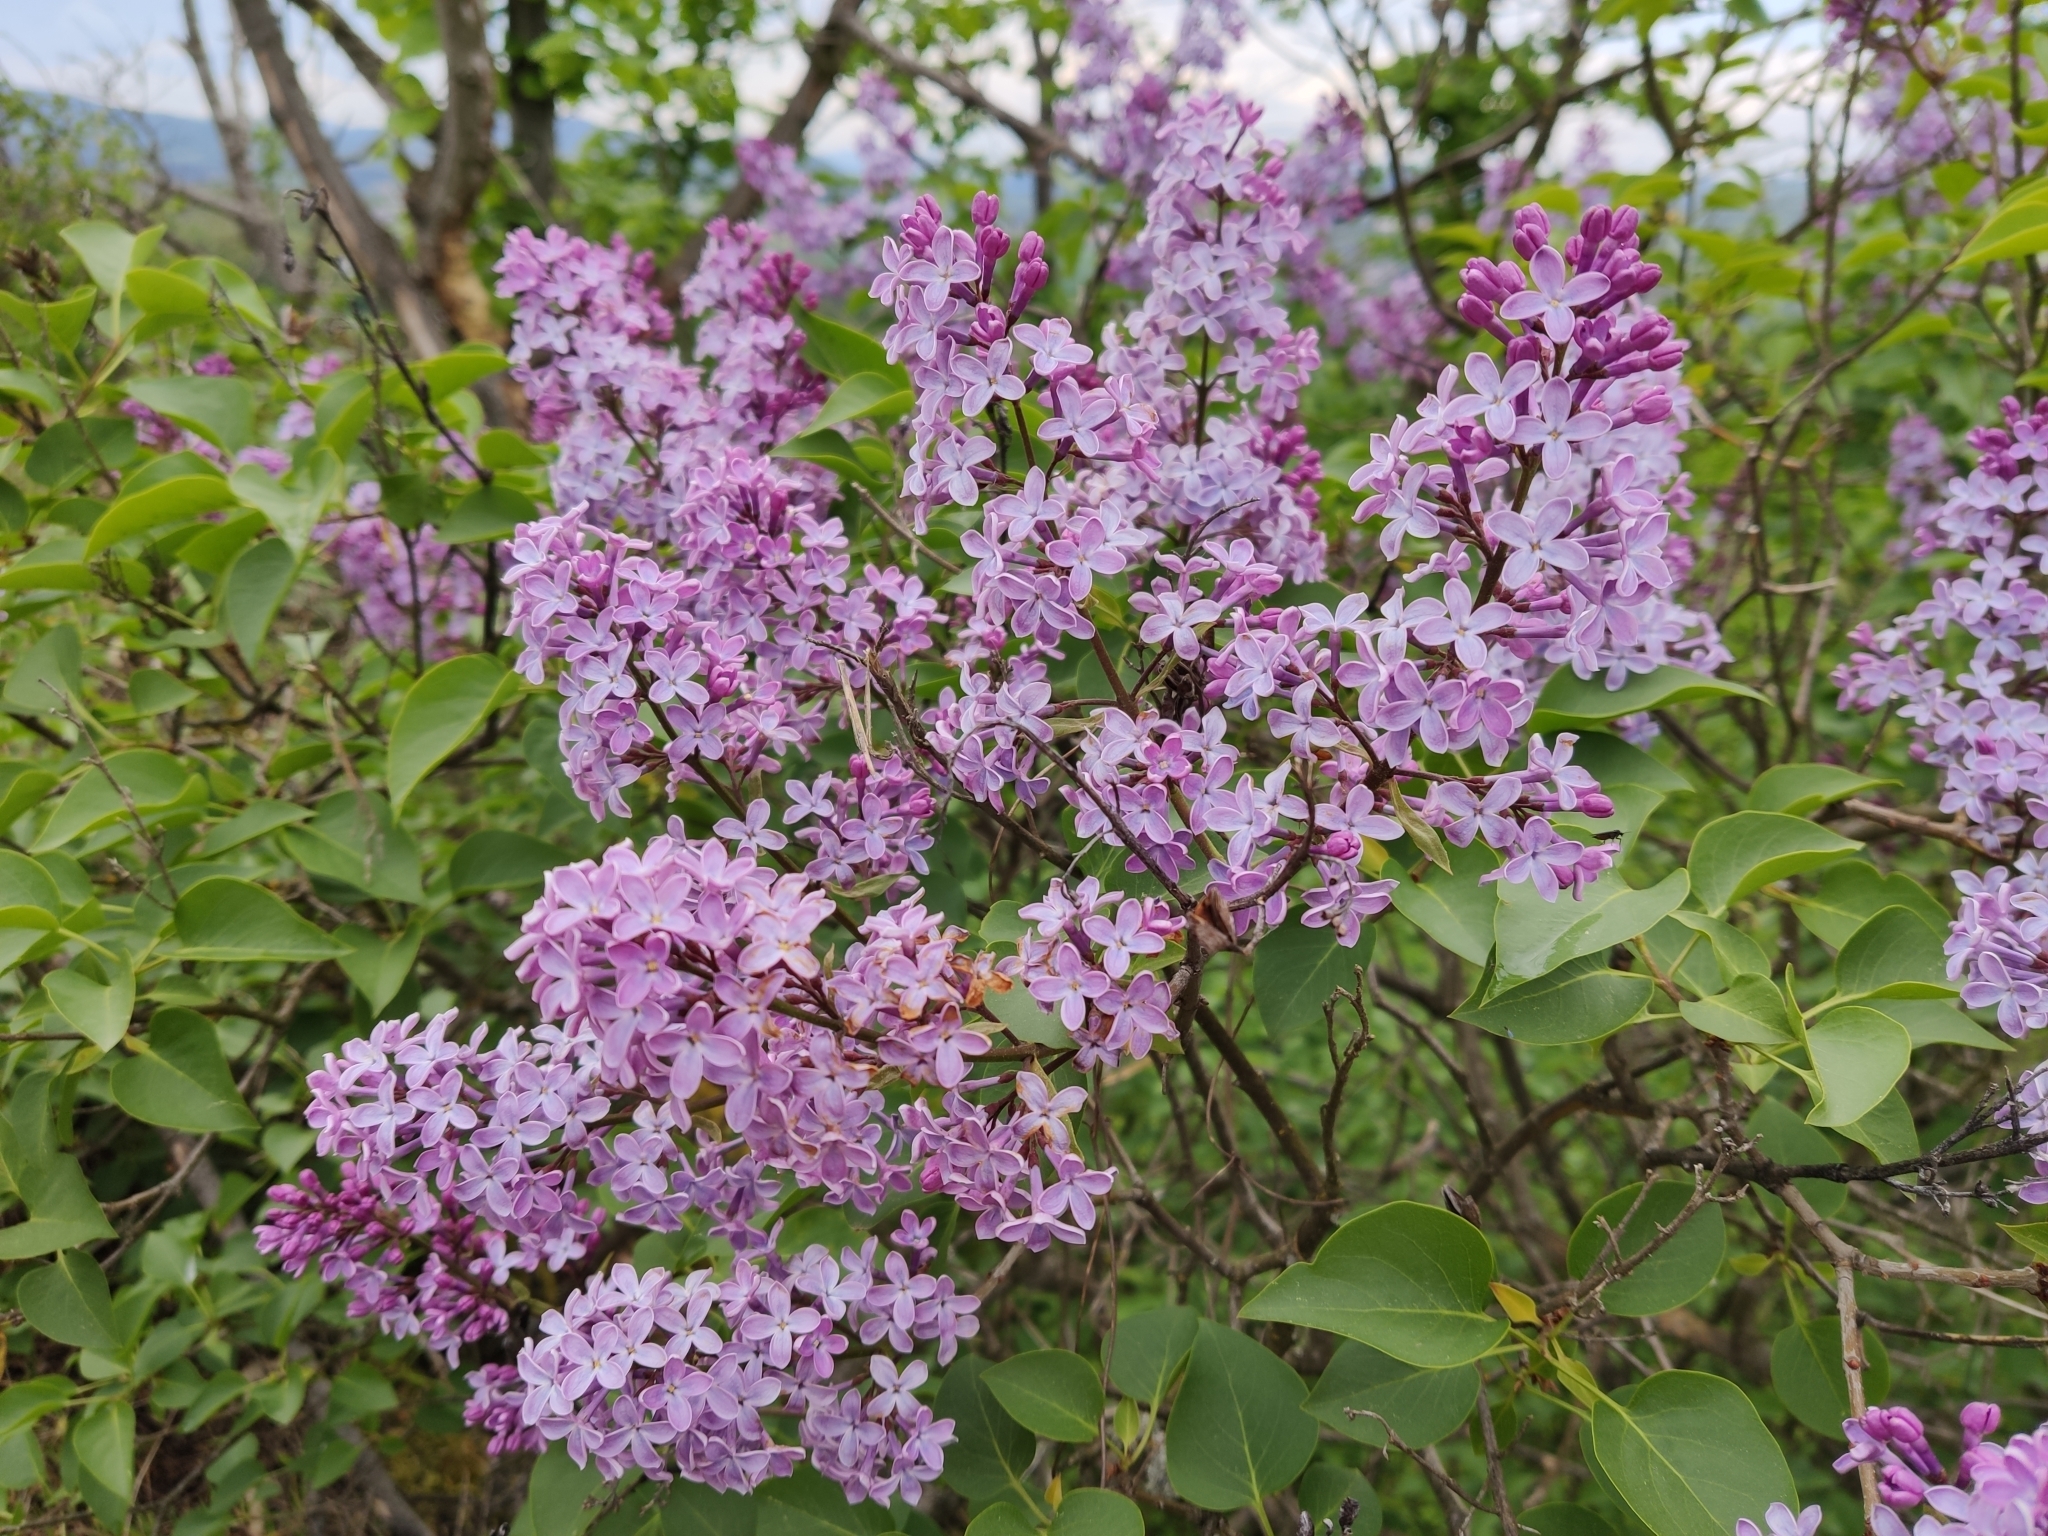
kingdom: Plantae
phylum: Tracheophyta
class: Magnoliopsida
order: Lamiales
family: Oleaceae
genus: Syringa
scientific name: Syringa vulgaris
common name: Common lilac
